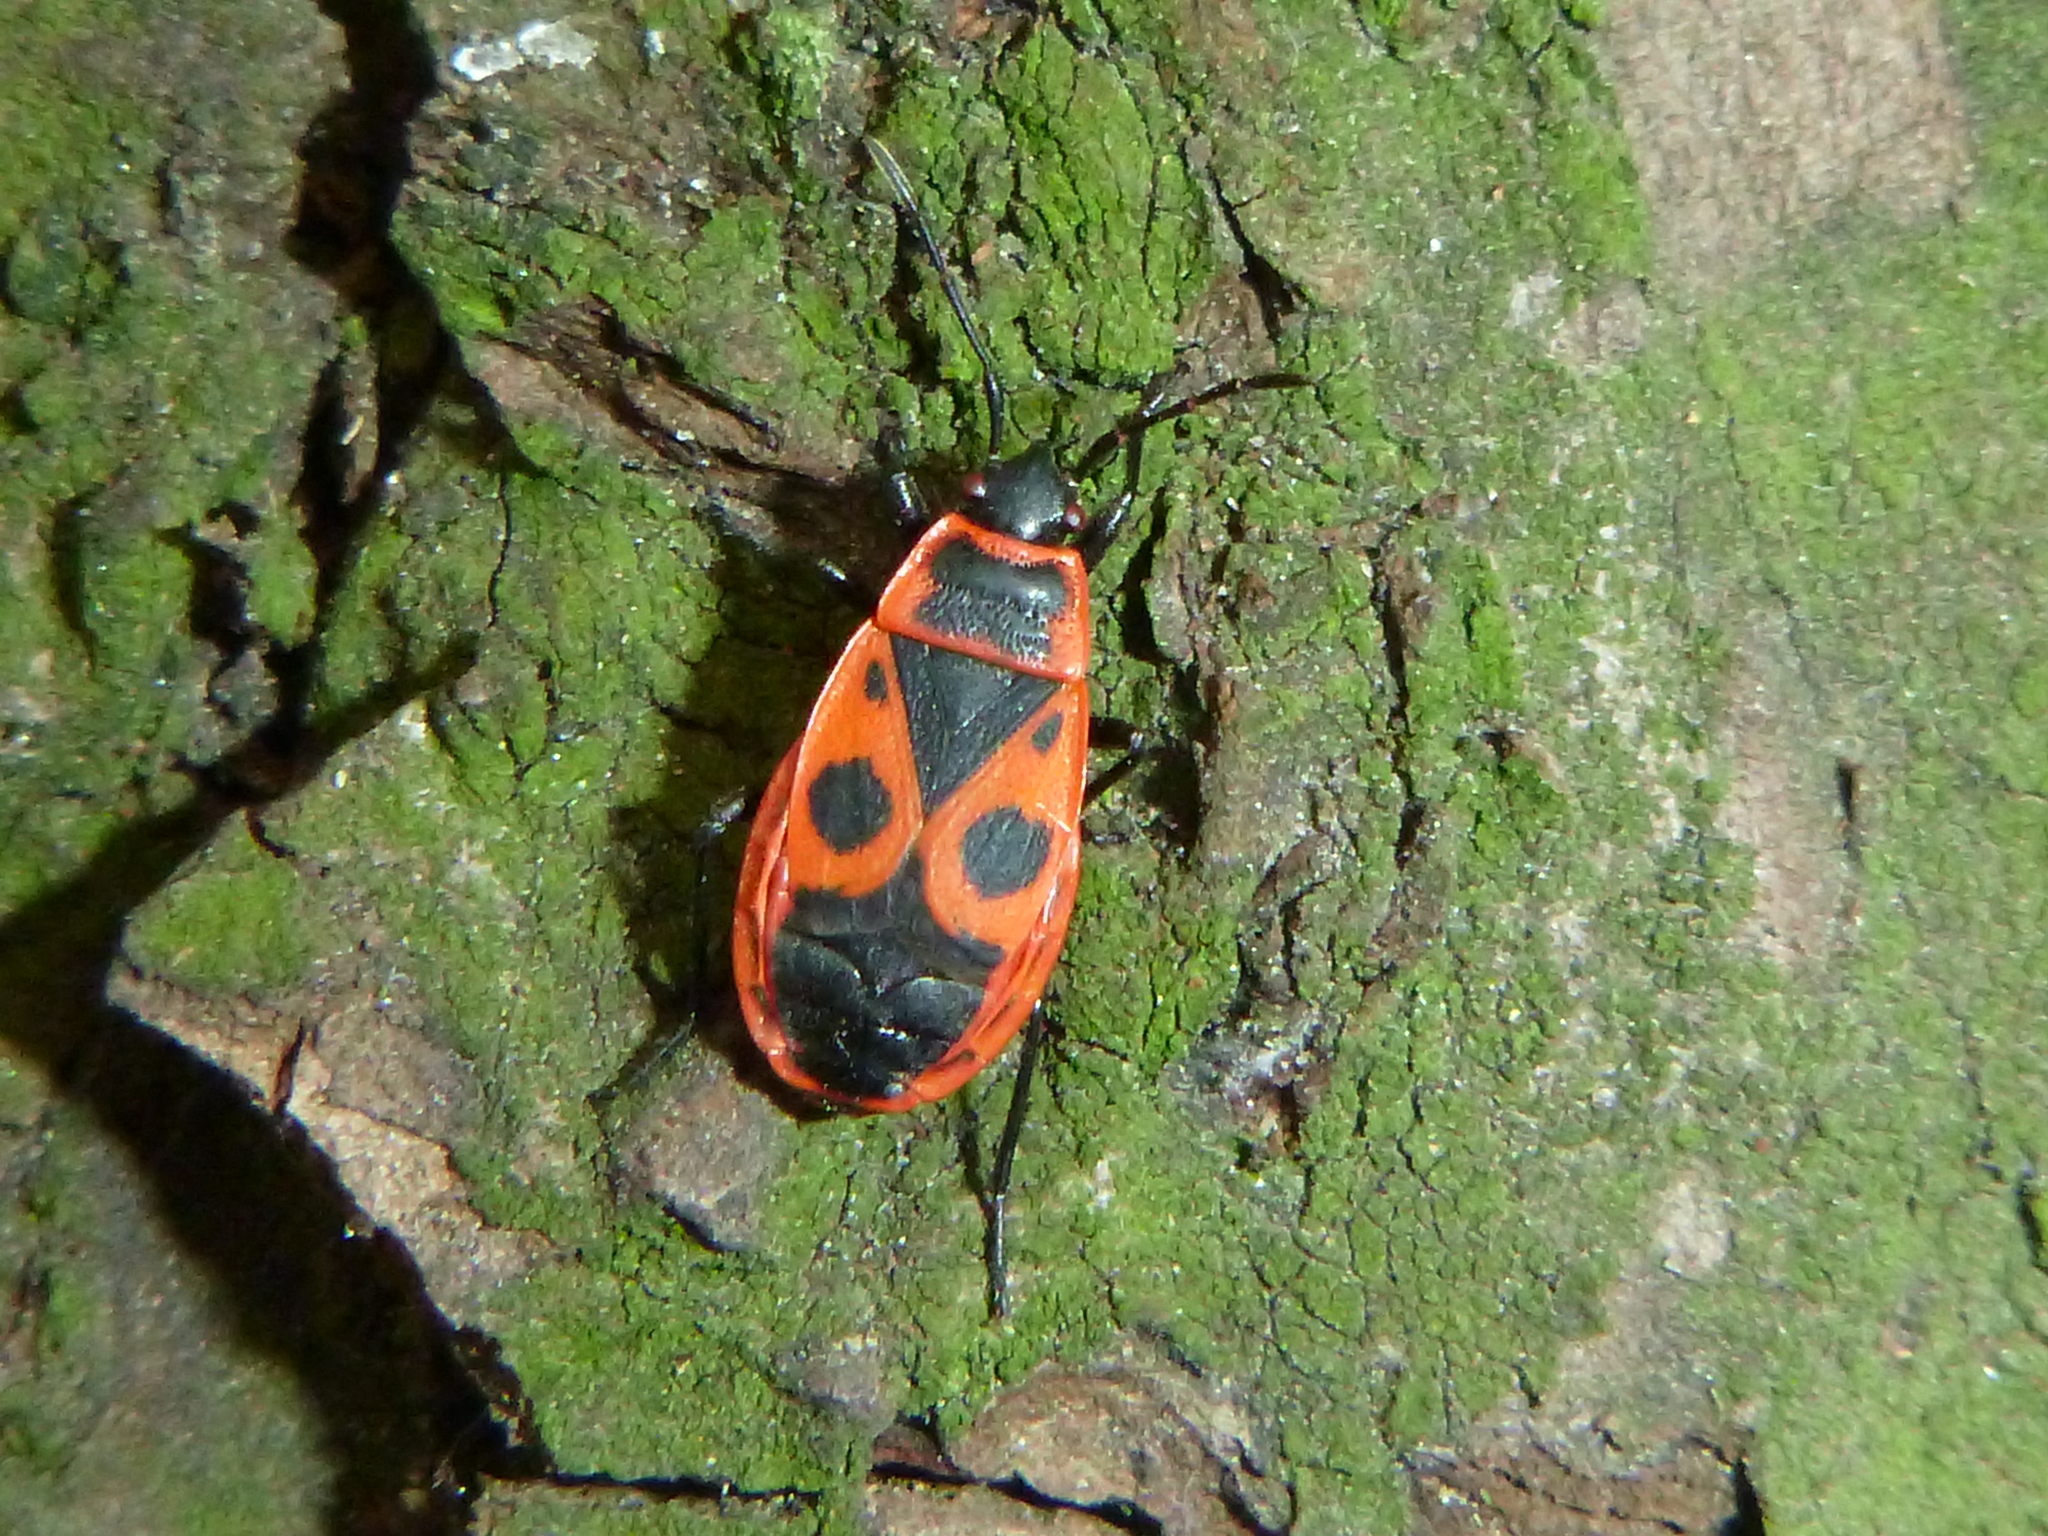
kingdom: Animalia
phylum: Arthropoda
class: Insecta
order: Hemiptera
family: Pyrrhocoridae
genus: Pyrrhocoris
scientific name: Pyrrhocoris apterus
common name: Firebug
